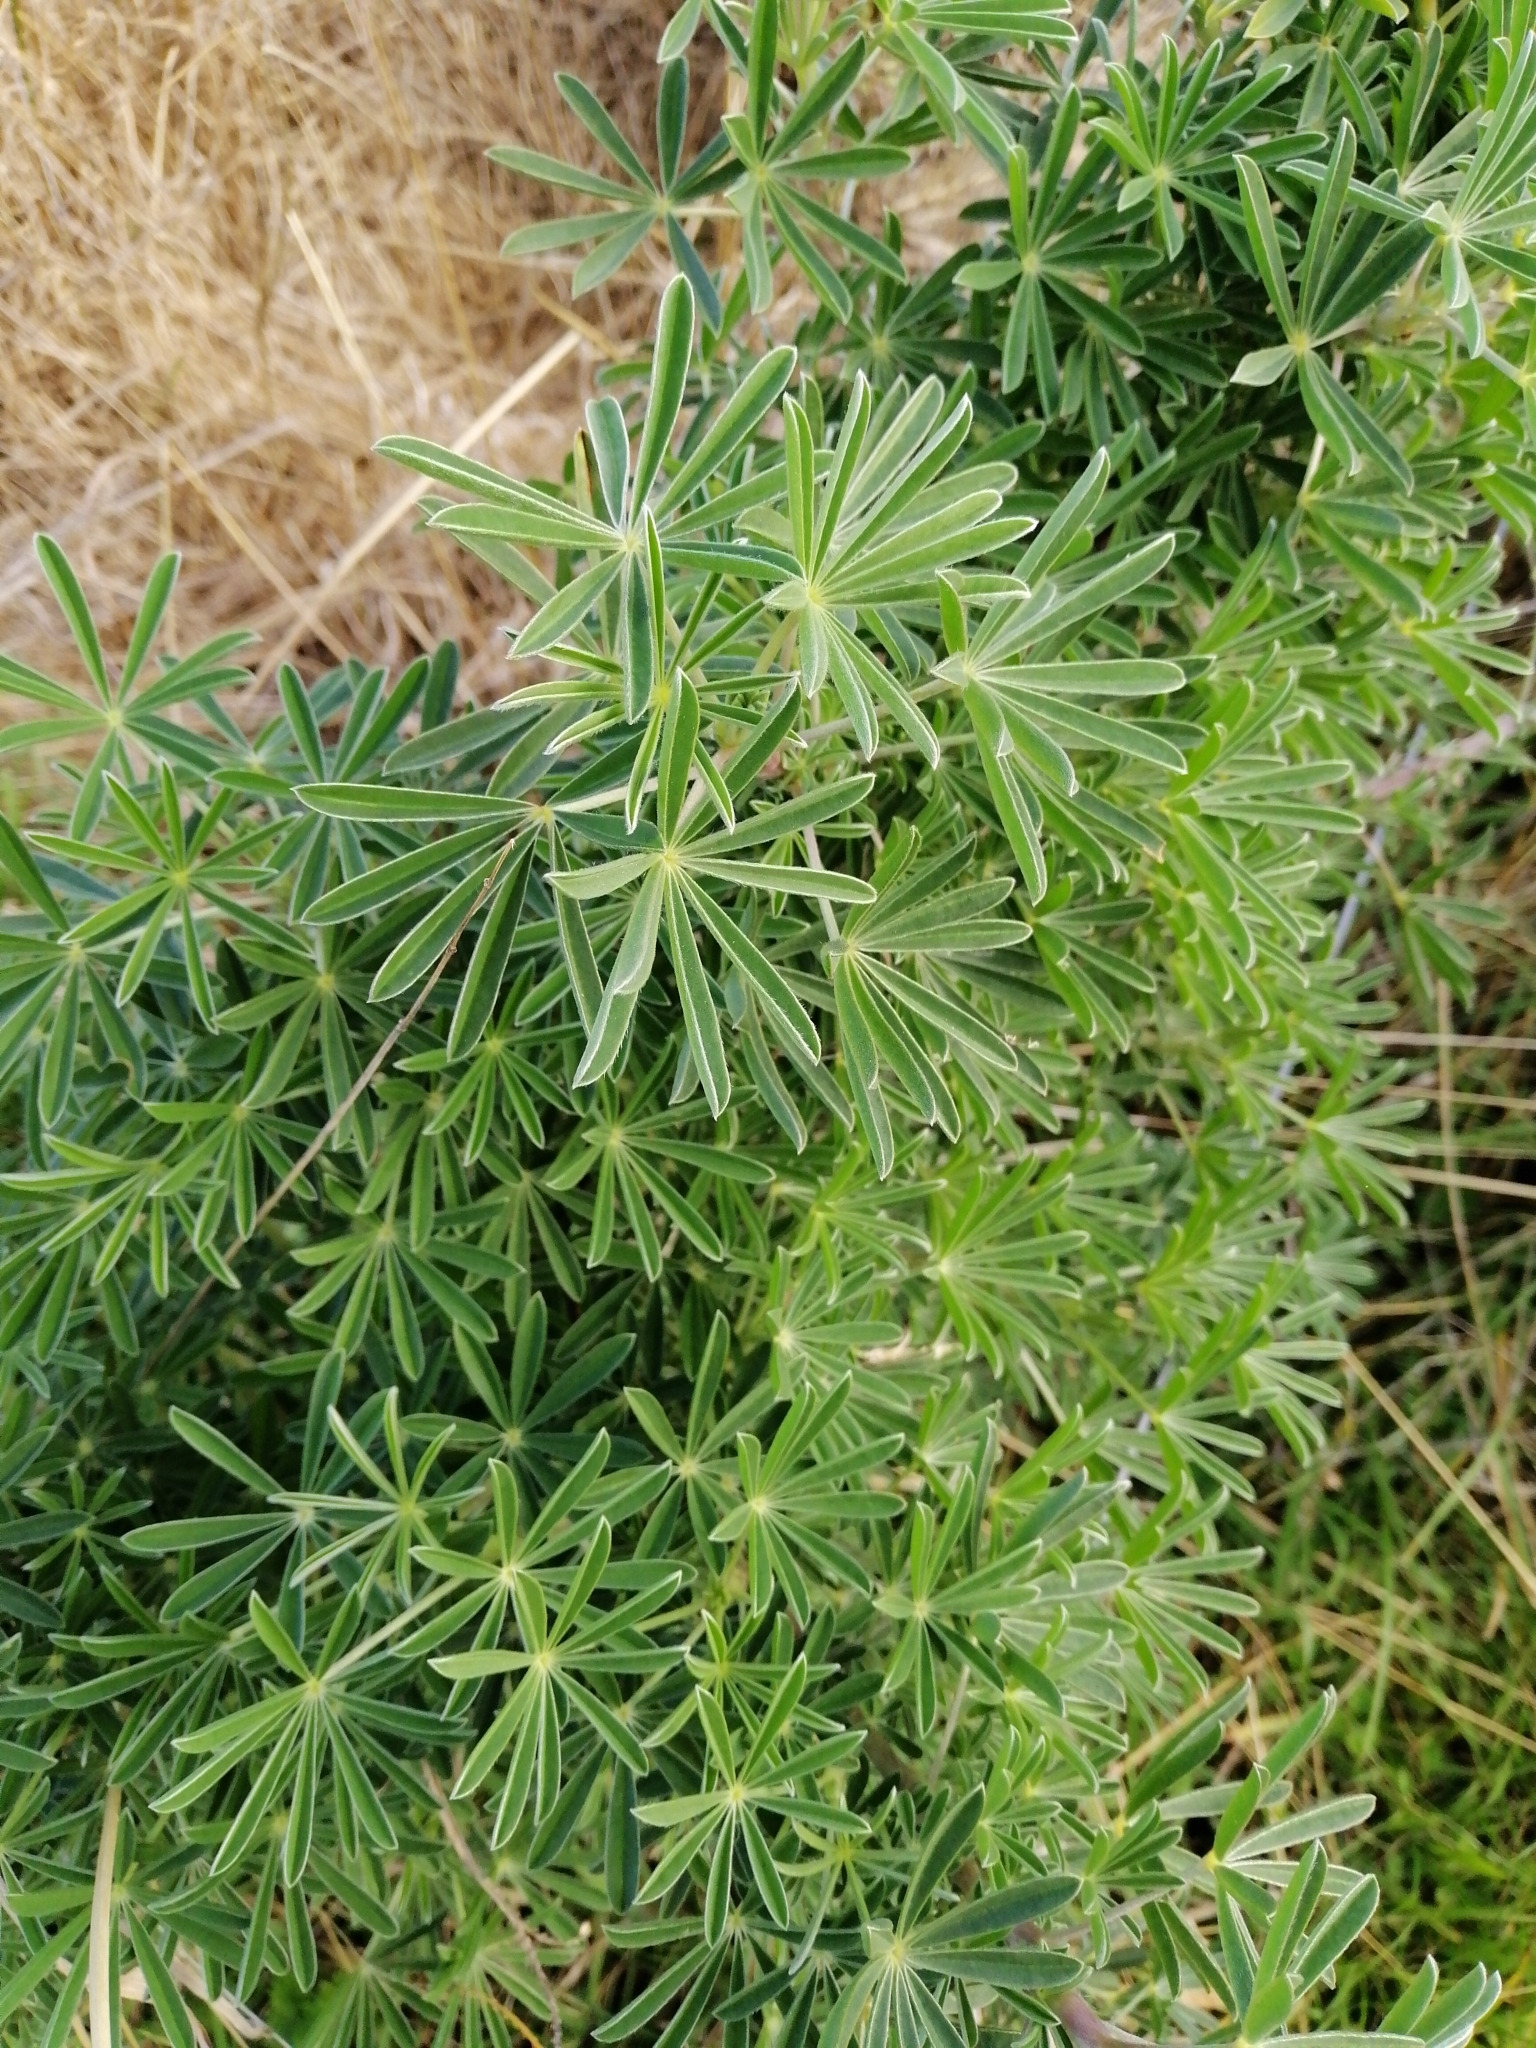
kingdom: Plantae
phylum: Tracheophyta
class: Magnoliopsida
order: Fabales
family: Fabaceae
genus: Lupinus
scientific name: Lupinus arboreus
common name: Yellow bush lupine
